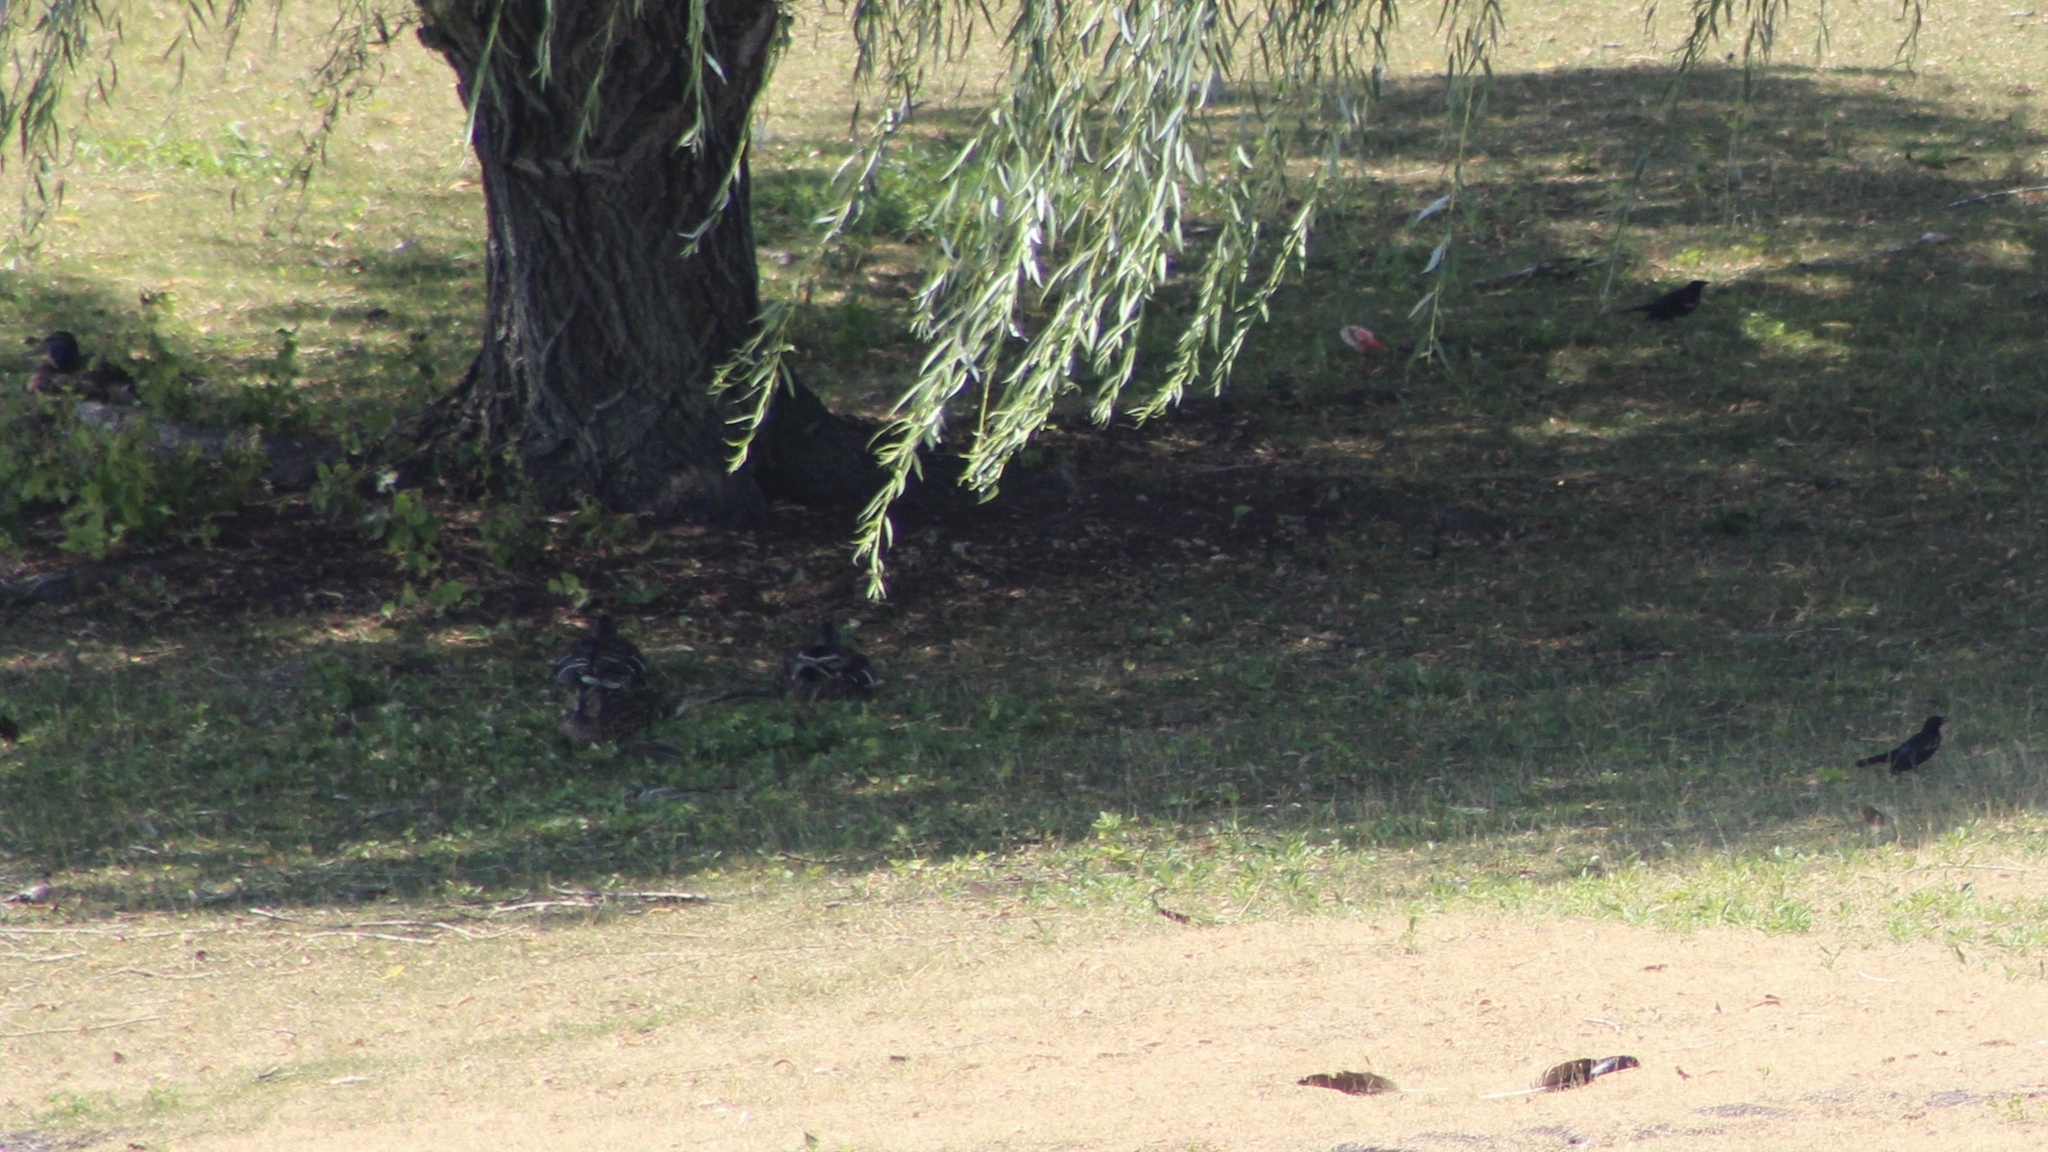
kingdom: Animalia
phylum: Chordata
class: Aves
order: Passeriformes
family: Icteridae
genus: Agelaius
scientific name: Agelaius phoeniceus
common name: Red-winged blackbird
